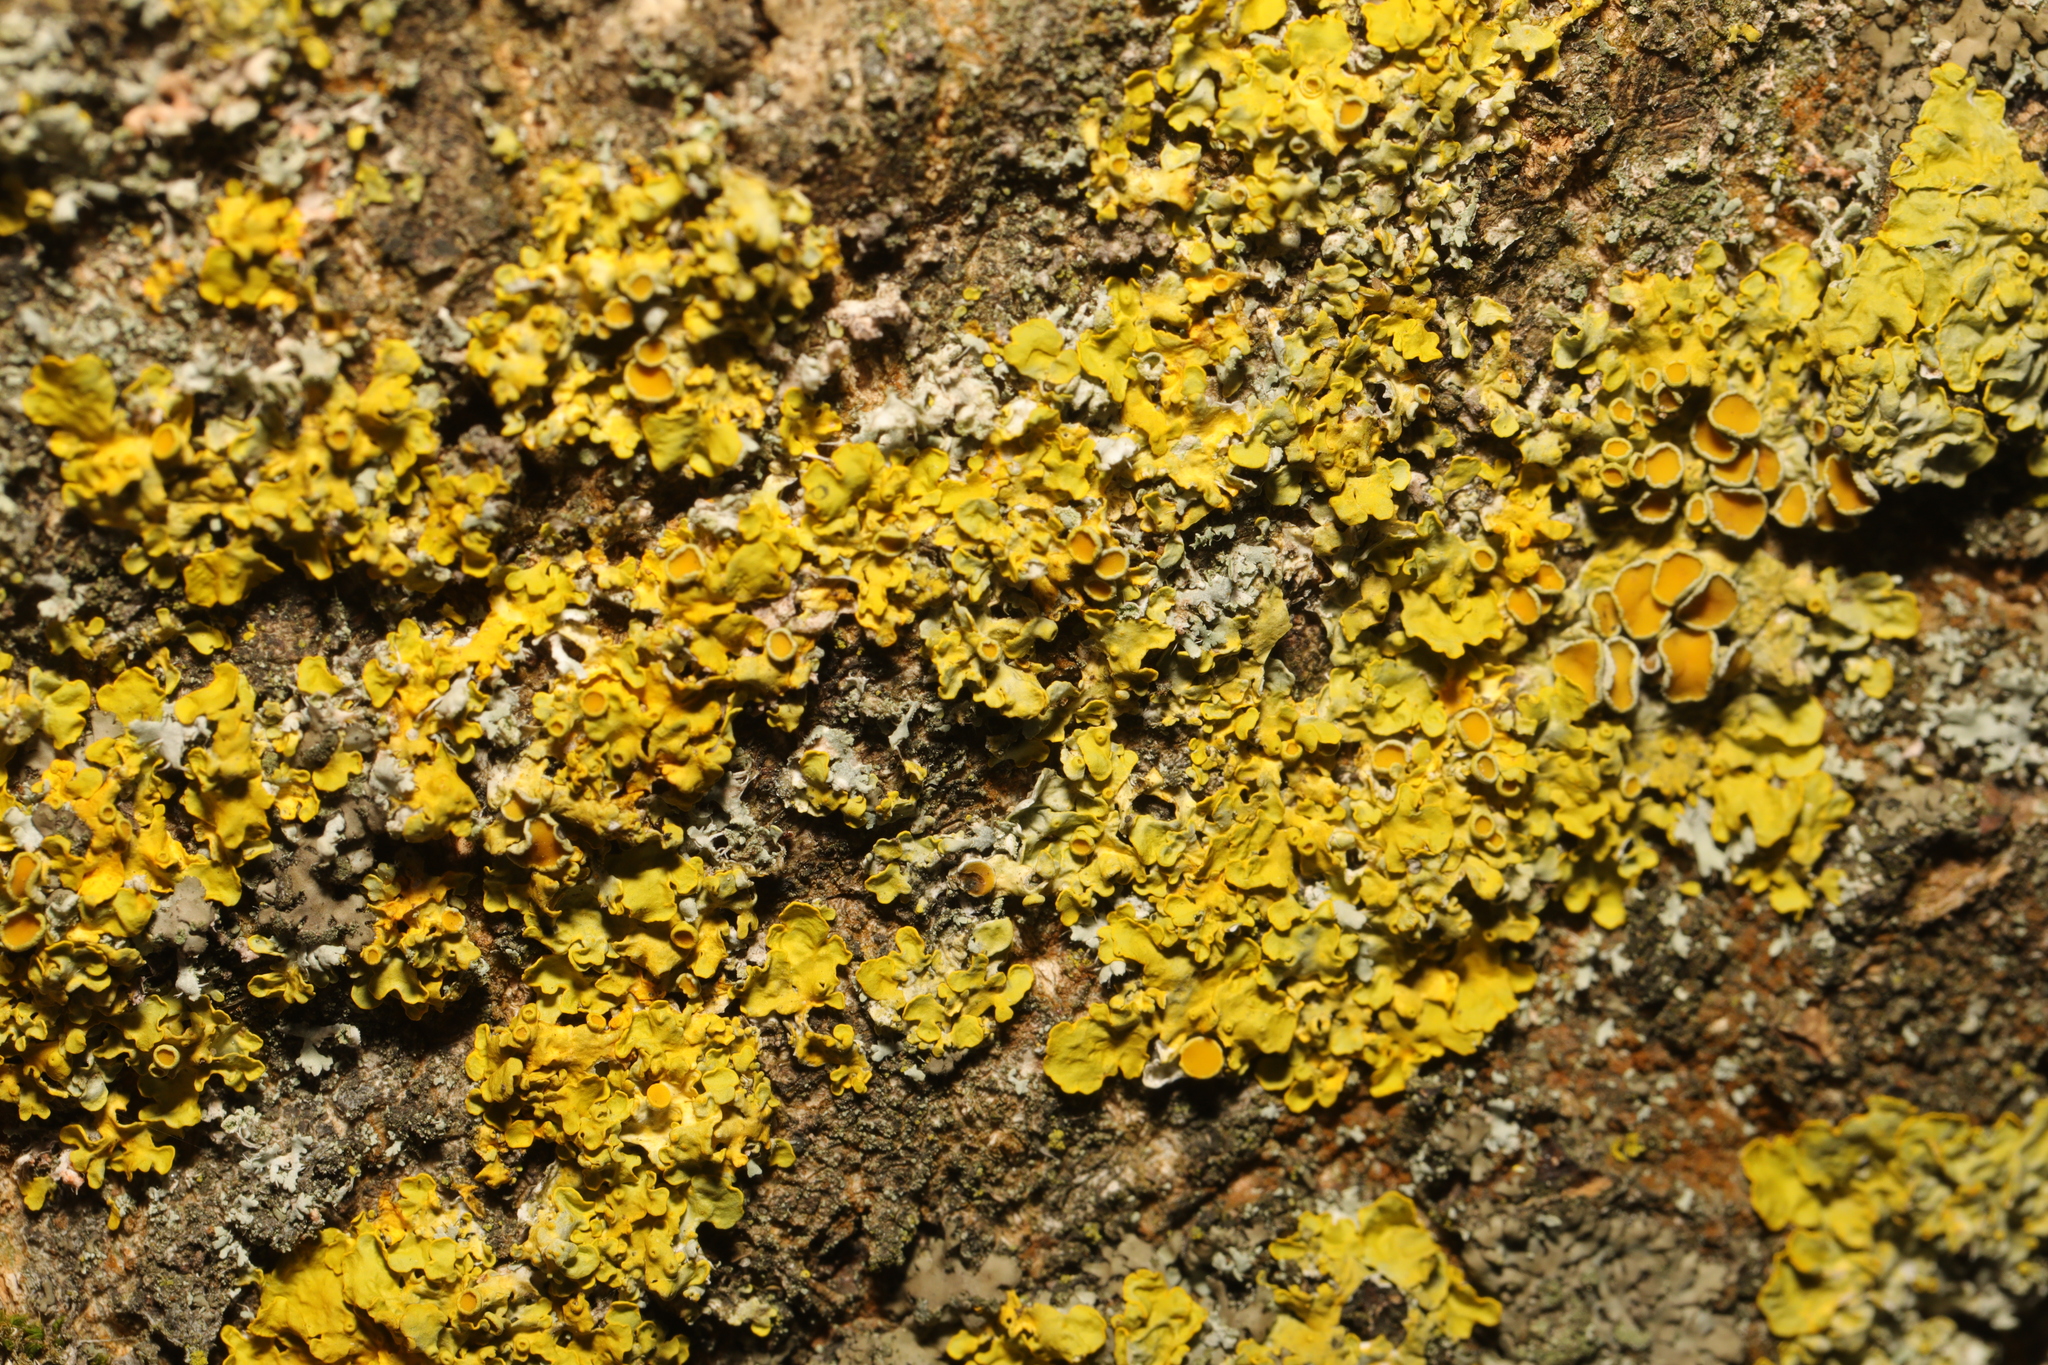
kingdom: Fungi
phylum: Ascomycota
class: Lecanoromycetes
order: Teloschistales
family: Teloschistaceae
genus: Xanthoria
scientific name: Xanthoria parietina
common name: Common orange lichen
